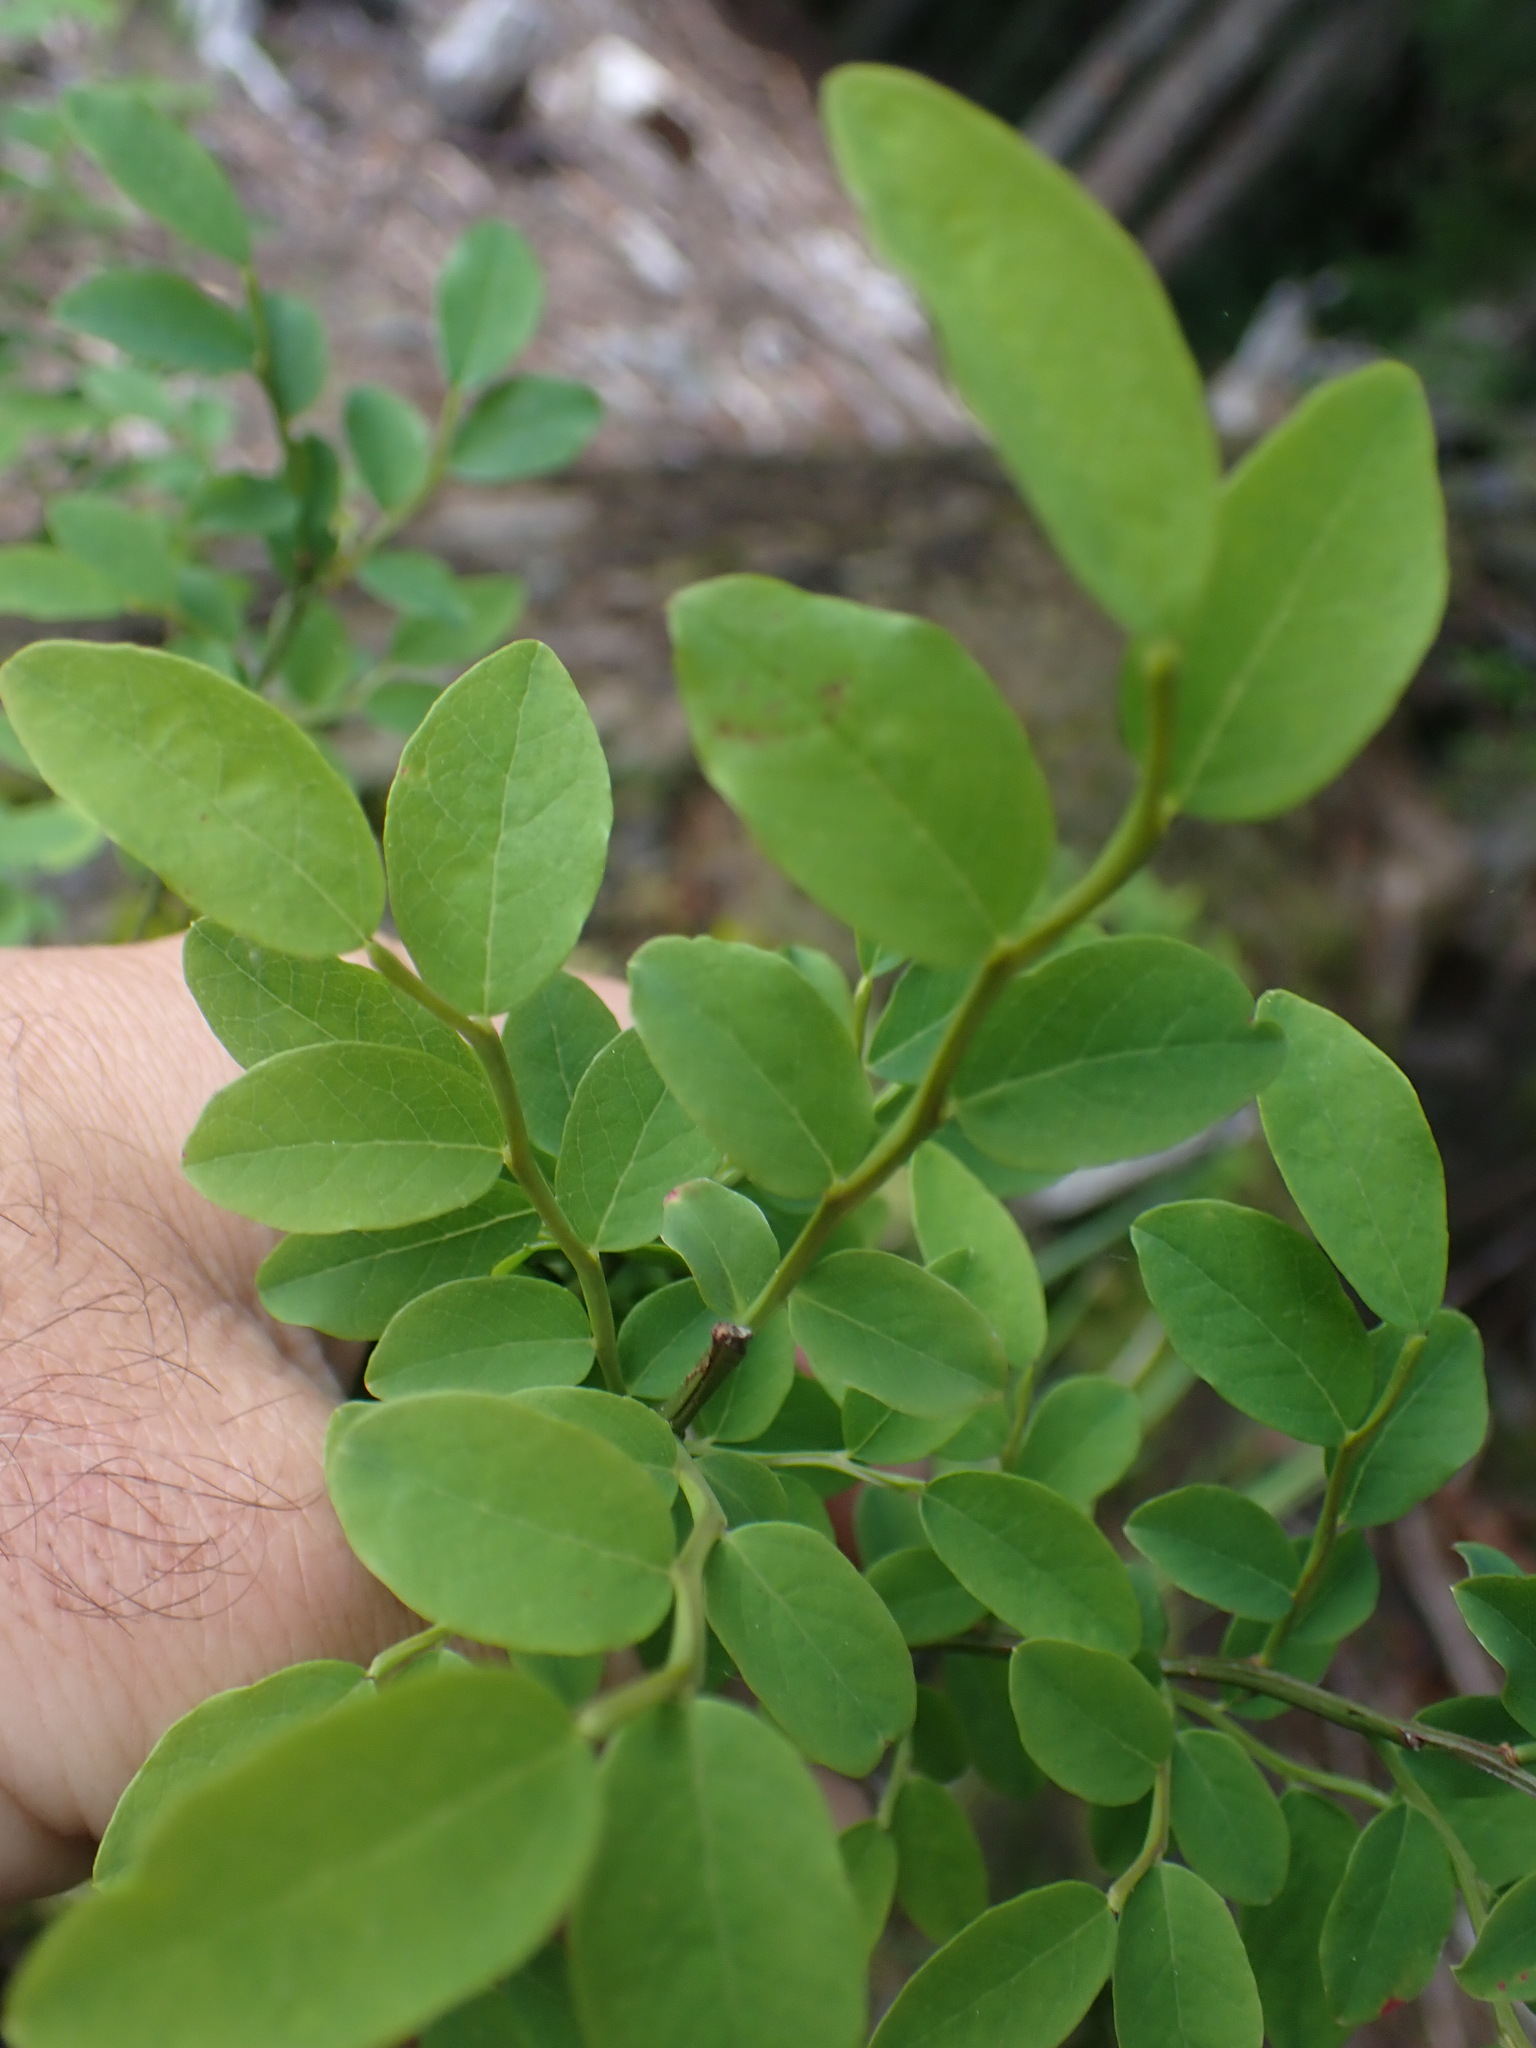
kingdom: Plantae
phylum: Tracheophyta
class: Magnoliopsida
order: Ericales
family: Ericaceae
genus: Vaccinium
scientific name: Vaccinium parvifolium
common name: Red-huckleberry
